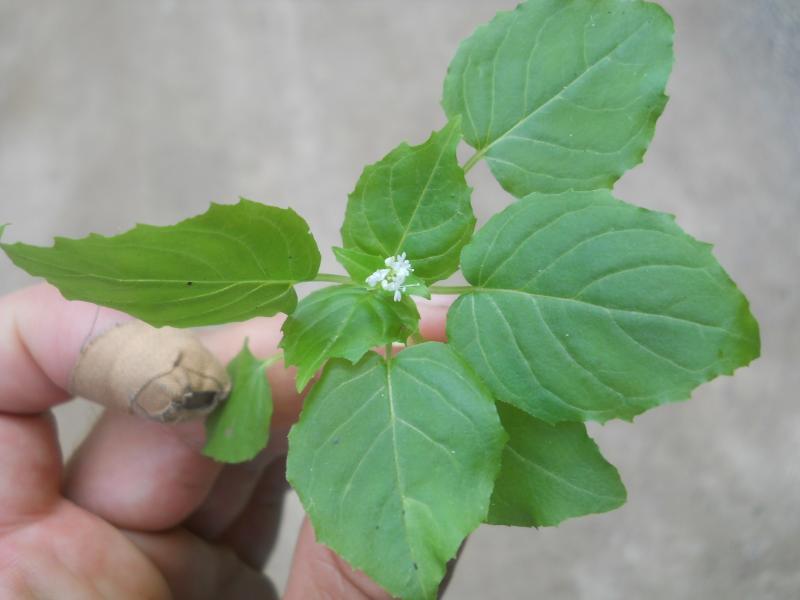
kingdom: Plantae
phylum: Tracheophyta
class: Magnoliopsida
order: Myrtales
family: Onagraceae
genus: Circaea
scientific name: Circaea alpina
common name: Alpine enchanter's-nightshade
